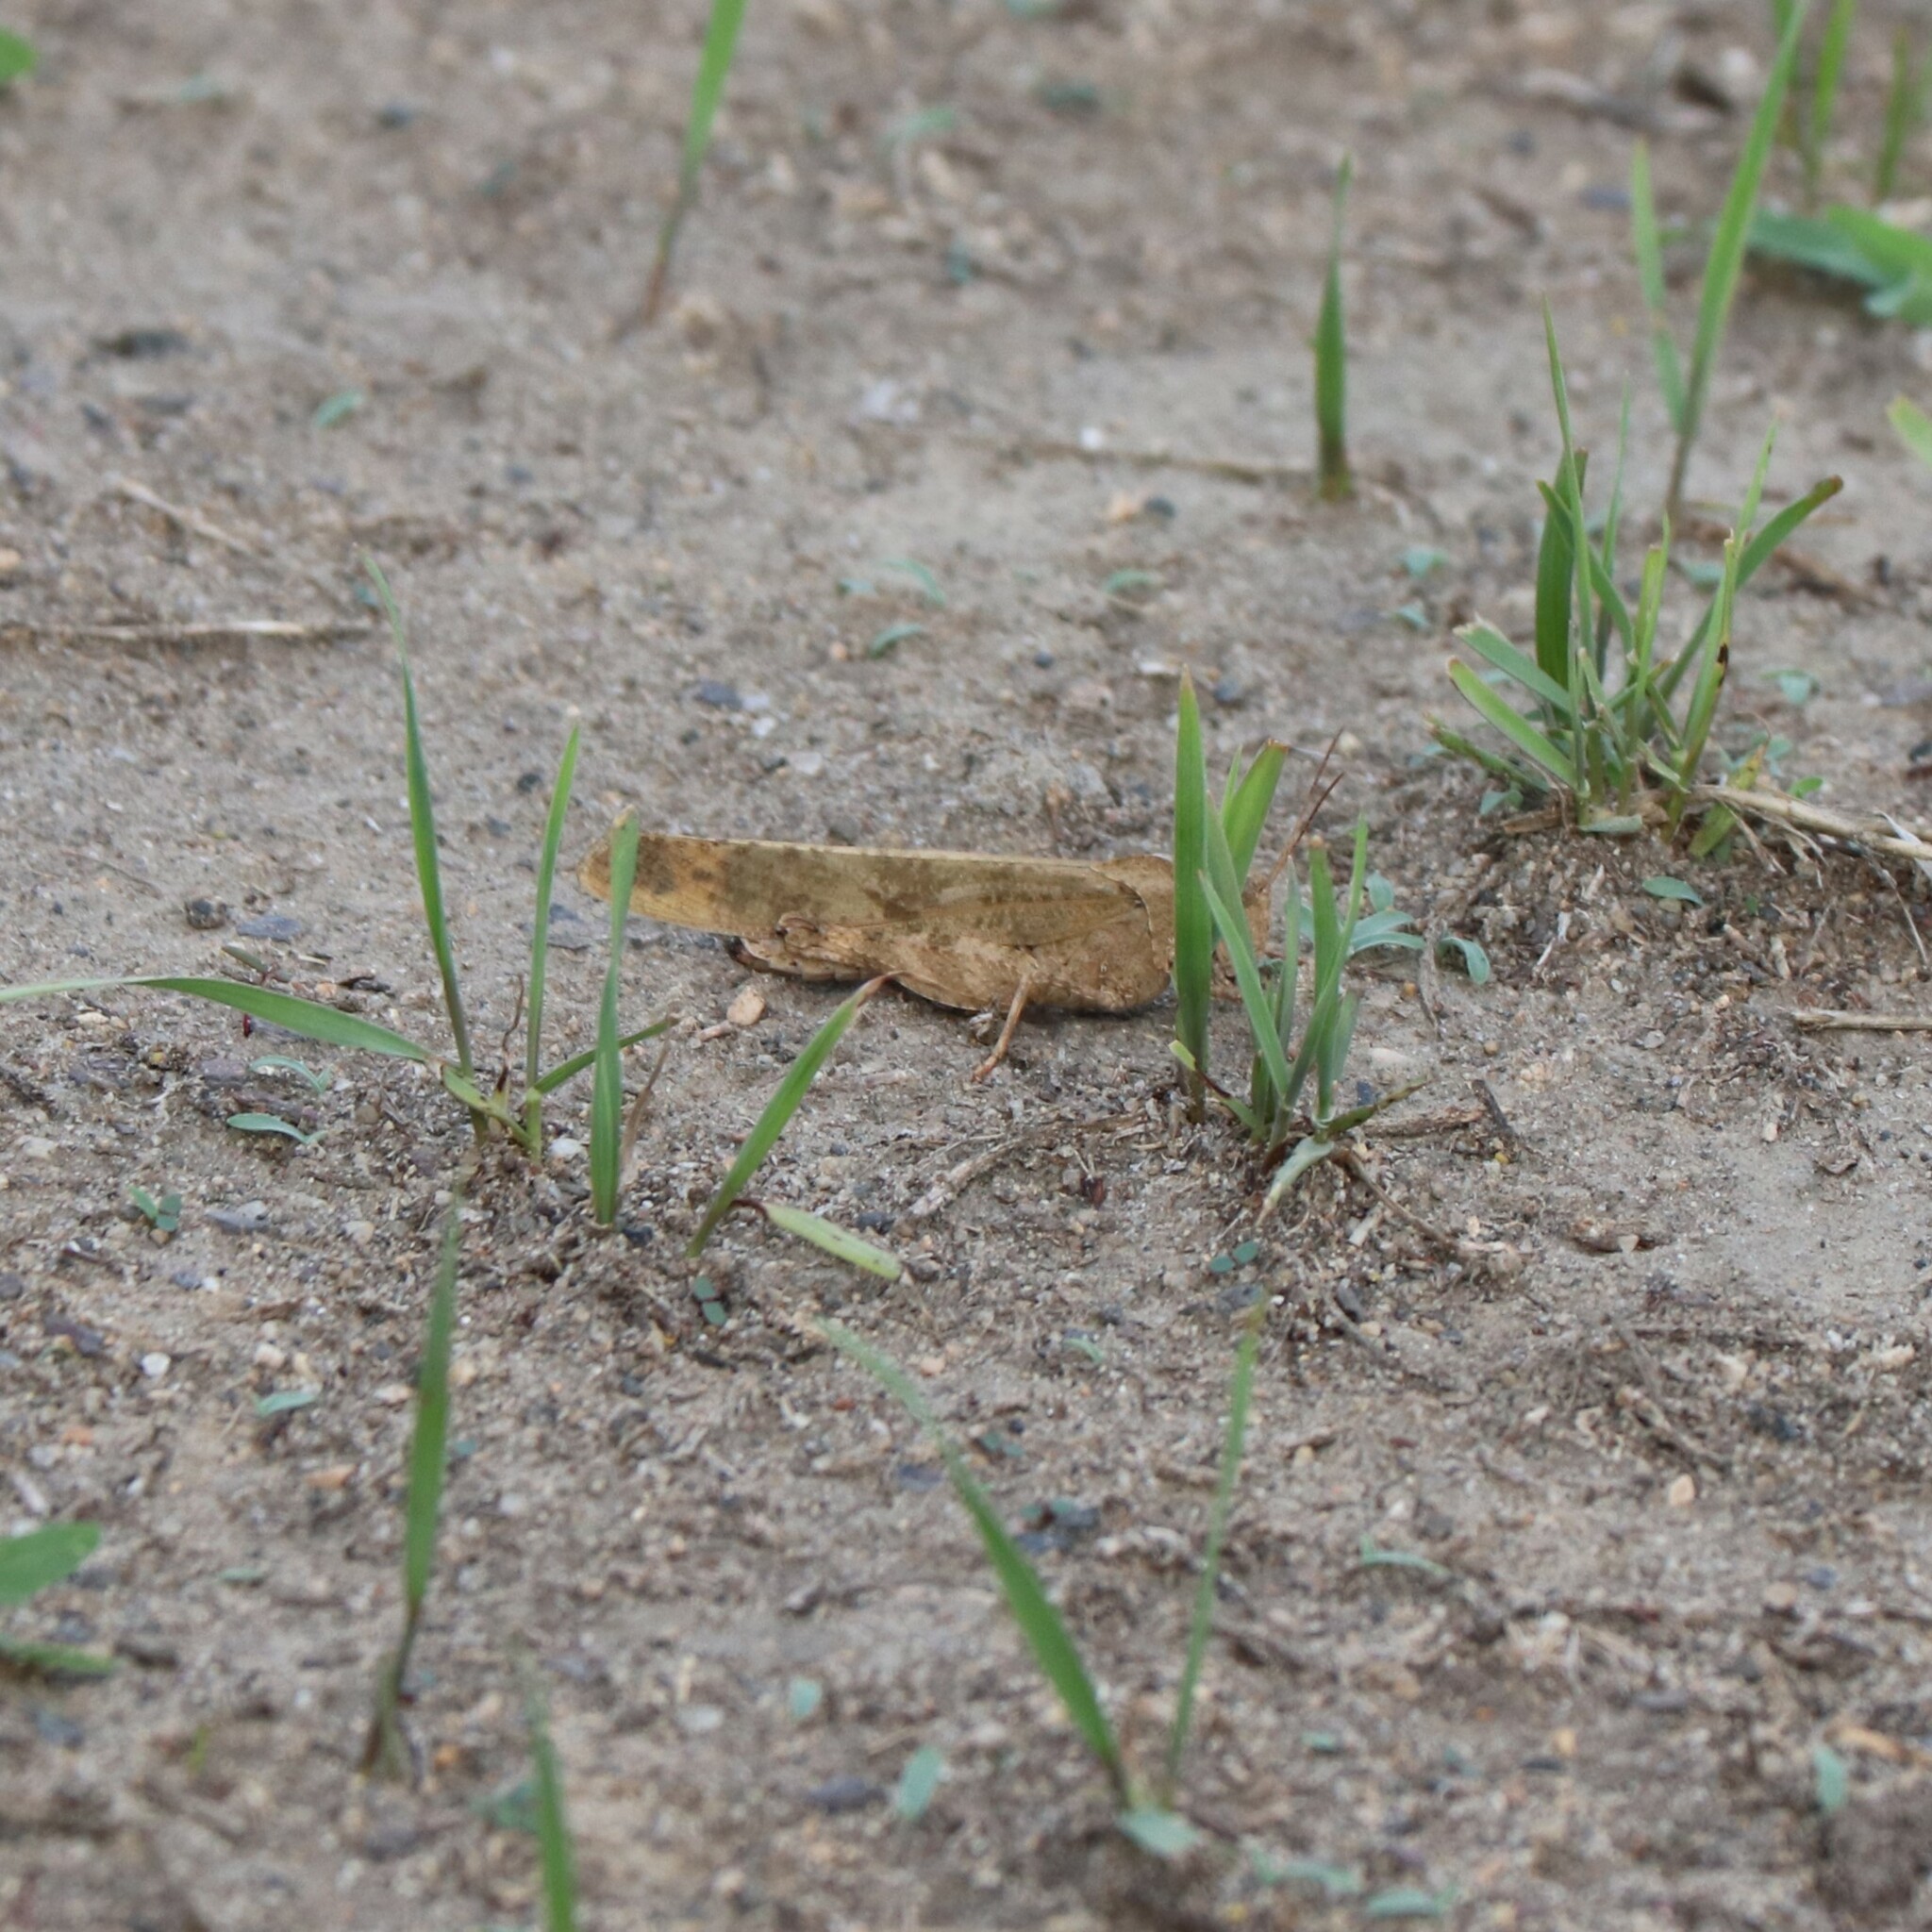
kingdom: Animalia
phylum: Arthropoda
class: Insecta
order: Orthoptera
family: Acrididae
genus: Dissosteira
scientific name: Dissosteira carolina
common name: Carolina grasshopper
